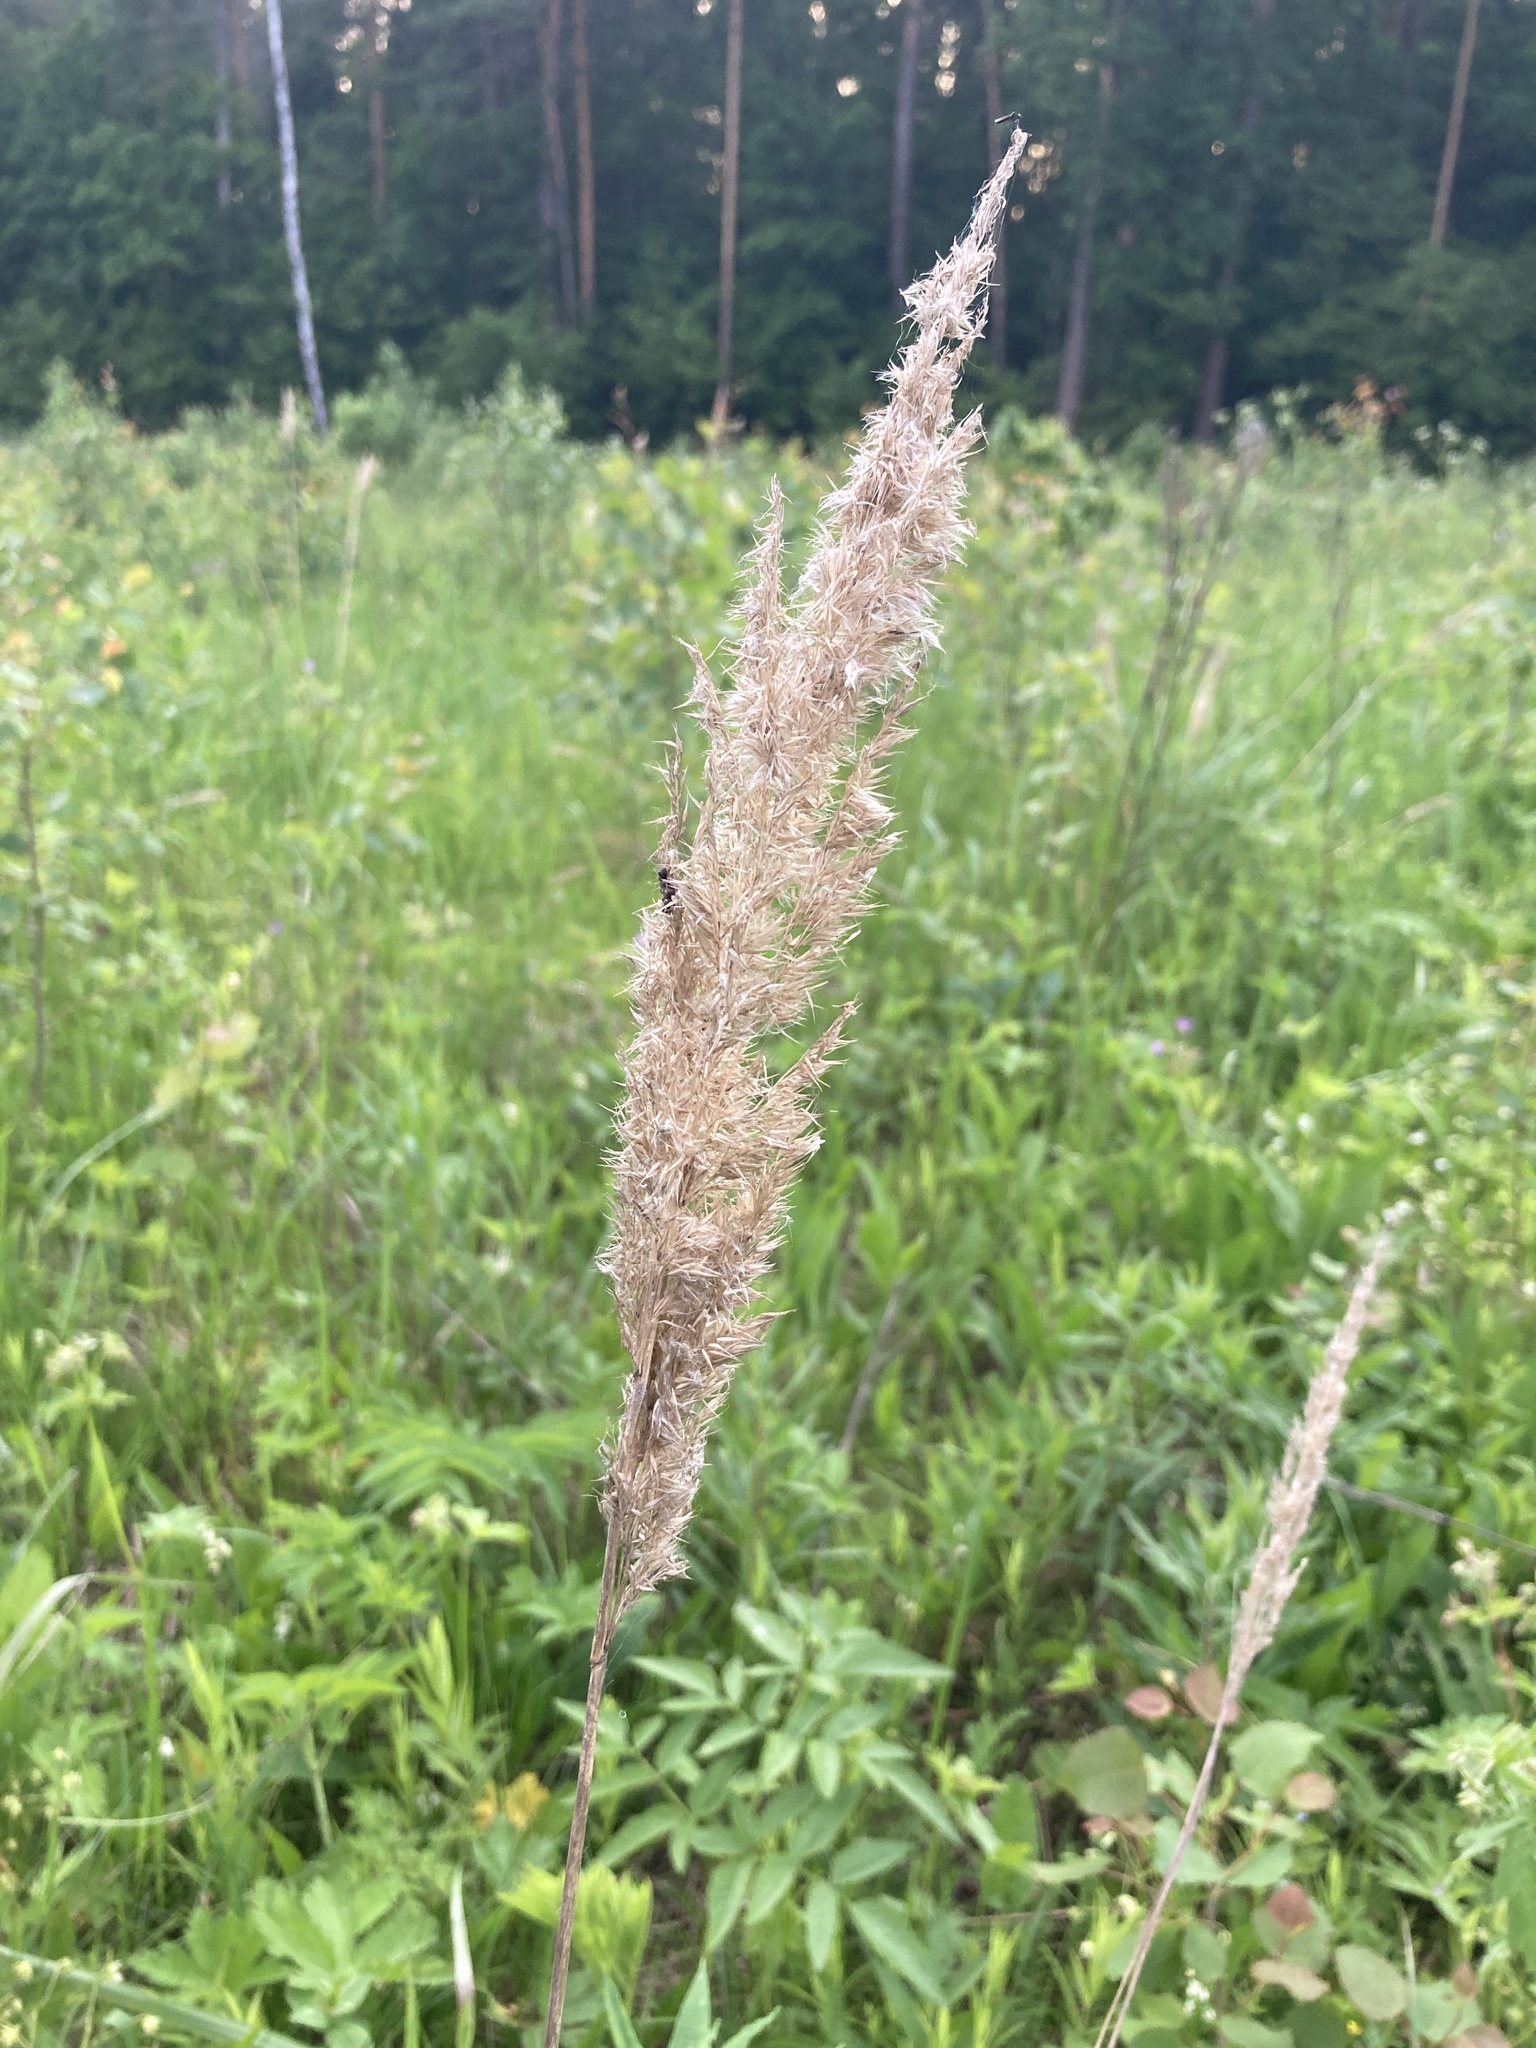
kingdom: Plantae
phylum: Tracheophyta
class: Liliopsida
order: Poales
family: Poaceae
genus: Calamagrostis
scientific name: Calamagrostis epigejos
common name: Wood small-reed
